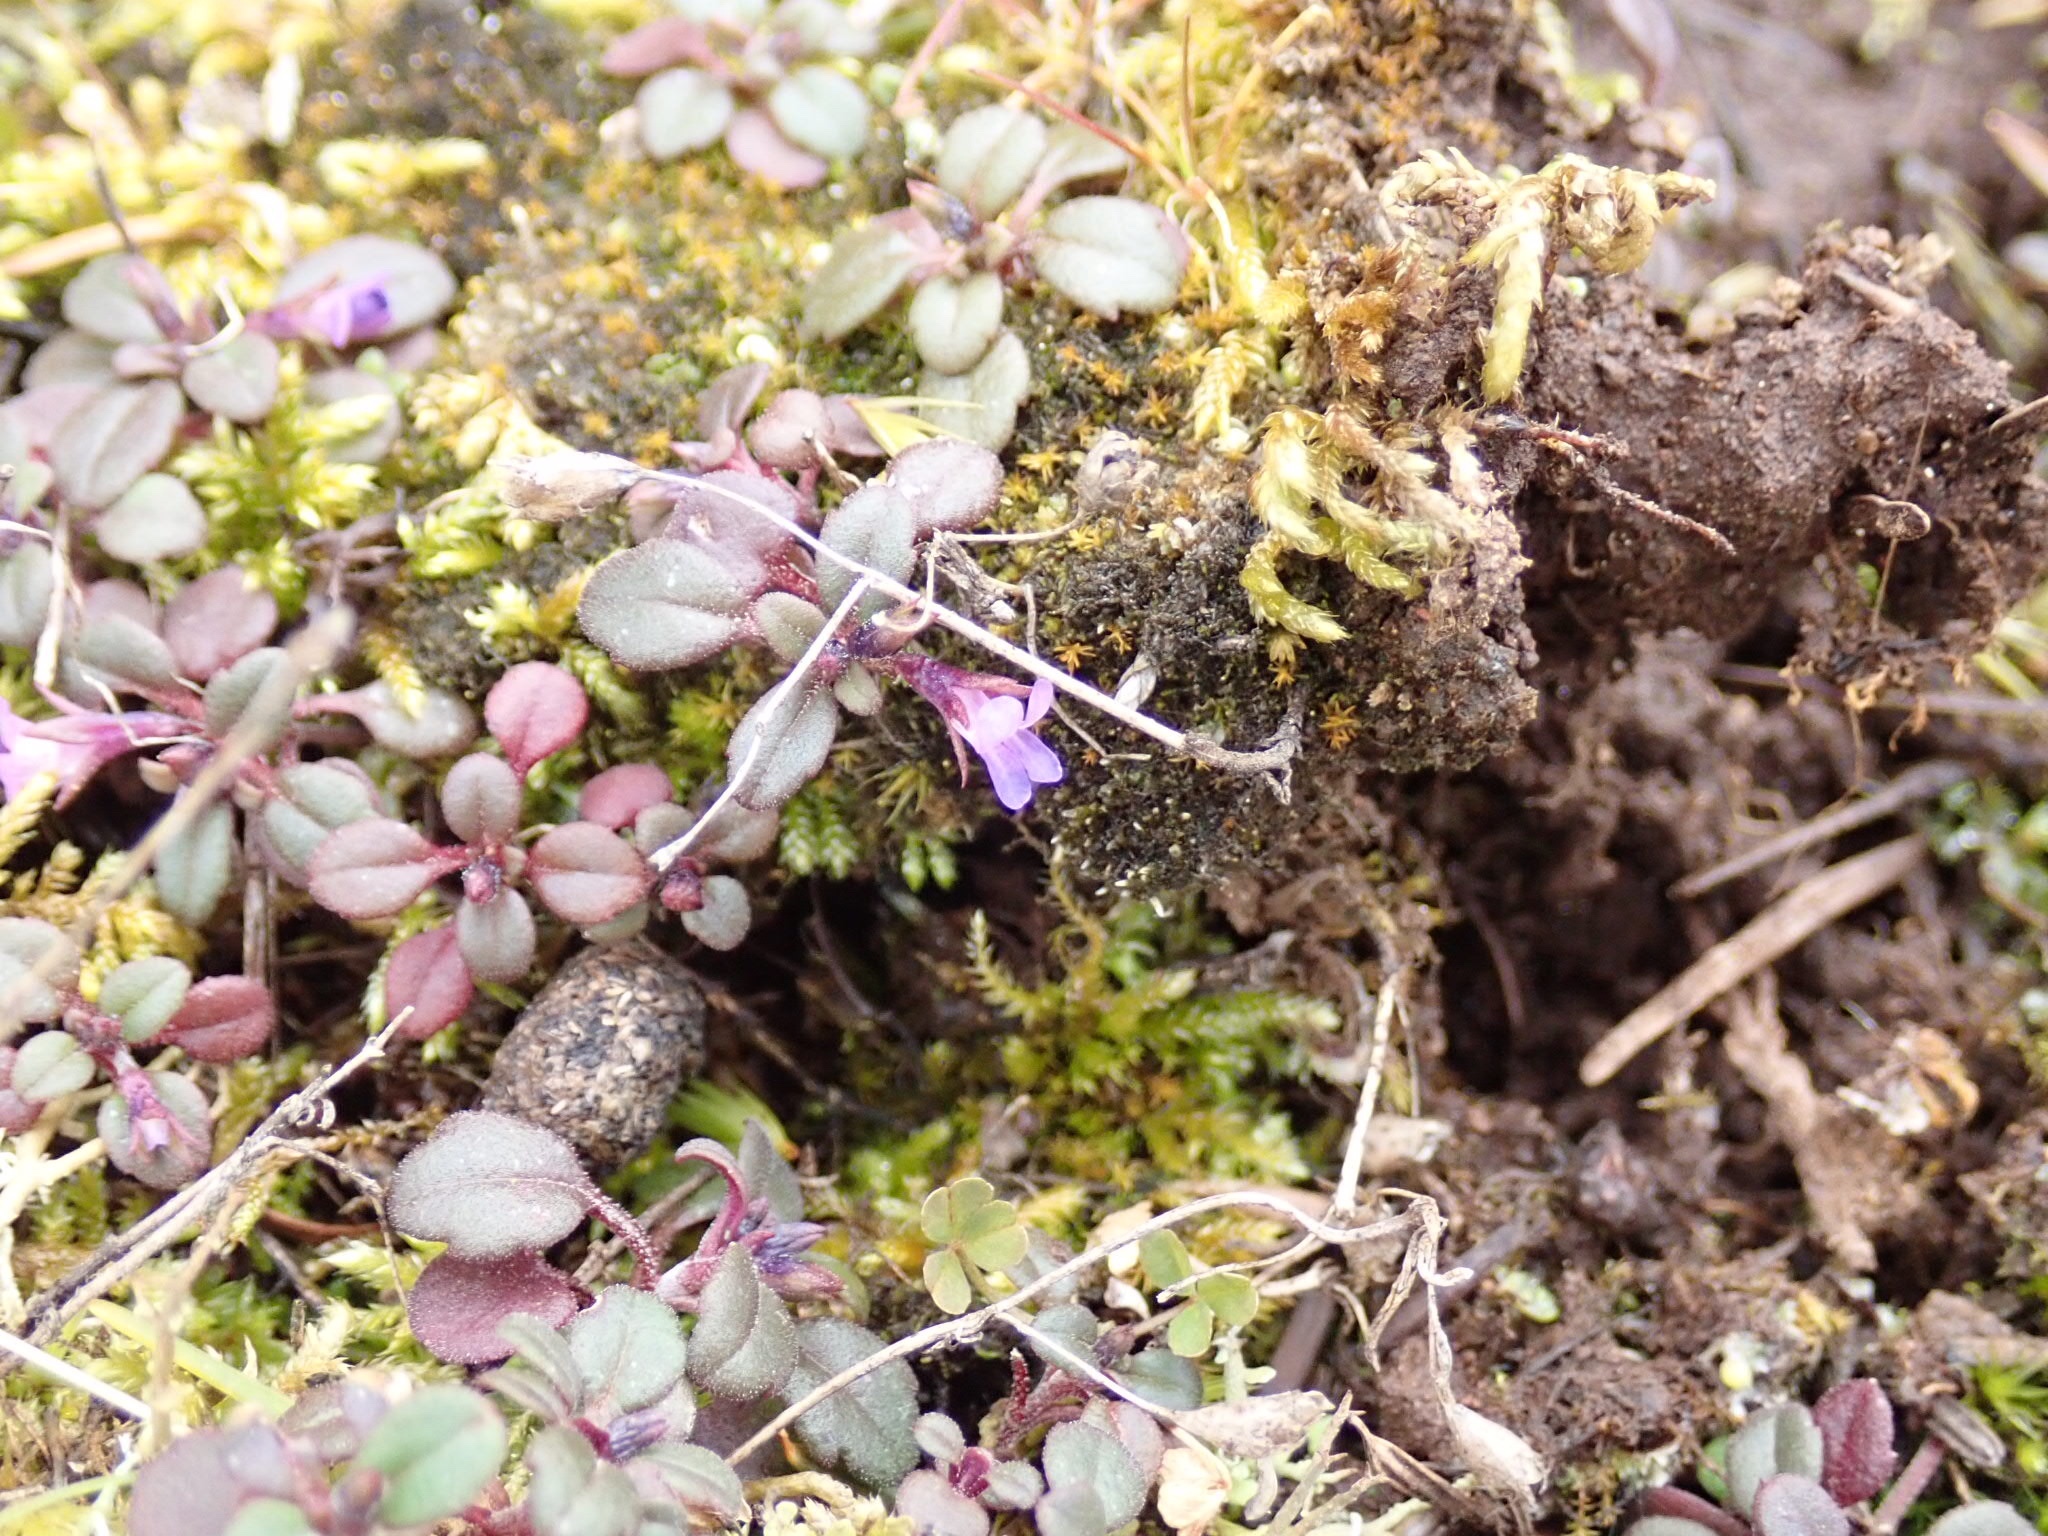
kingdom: Plantae
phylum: Tracheophyta
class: Magnoliopsida
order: Lamiales
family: Plantaginaceae
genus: Collinsia
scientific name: Collinsia parviflora
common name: Blue-lips
